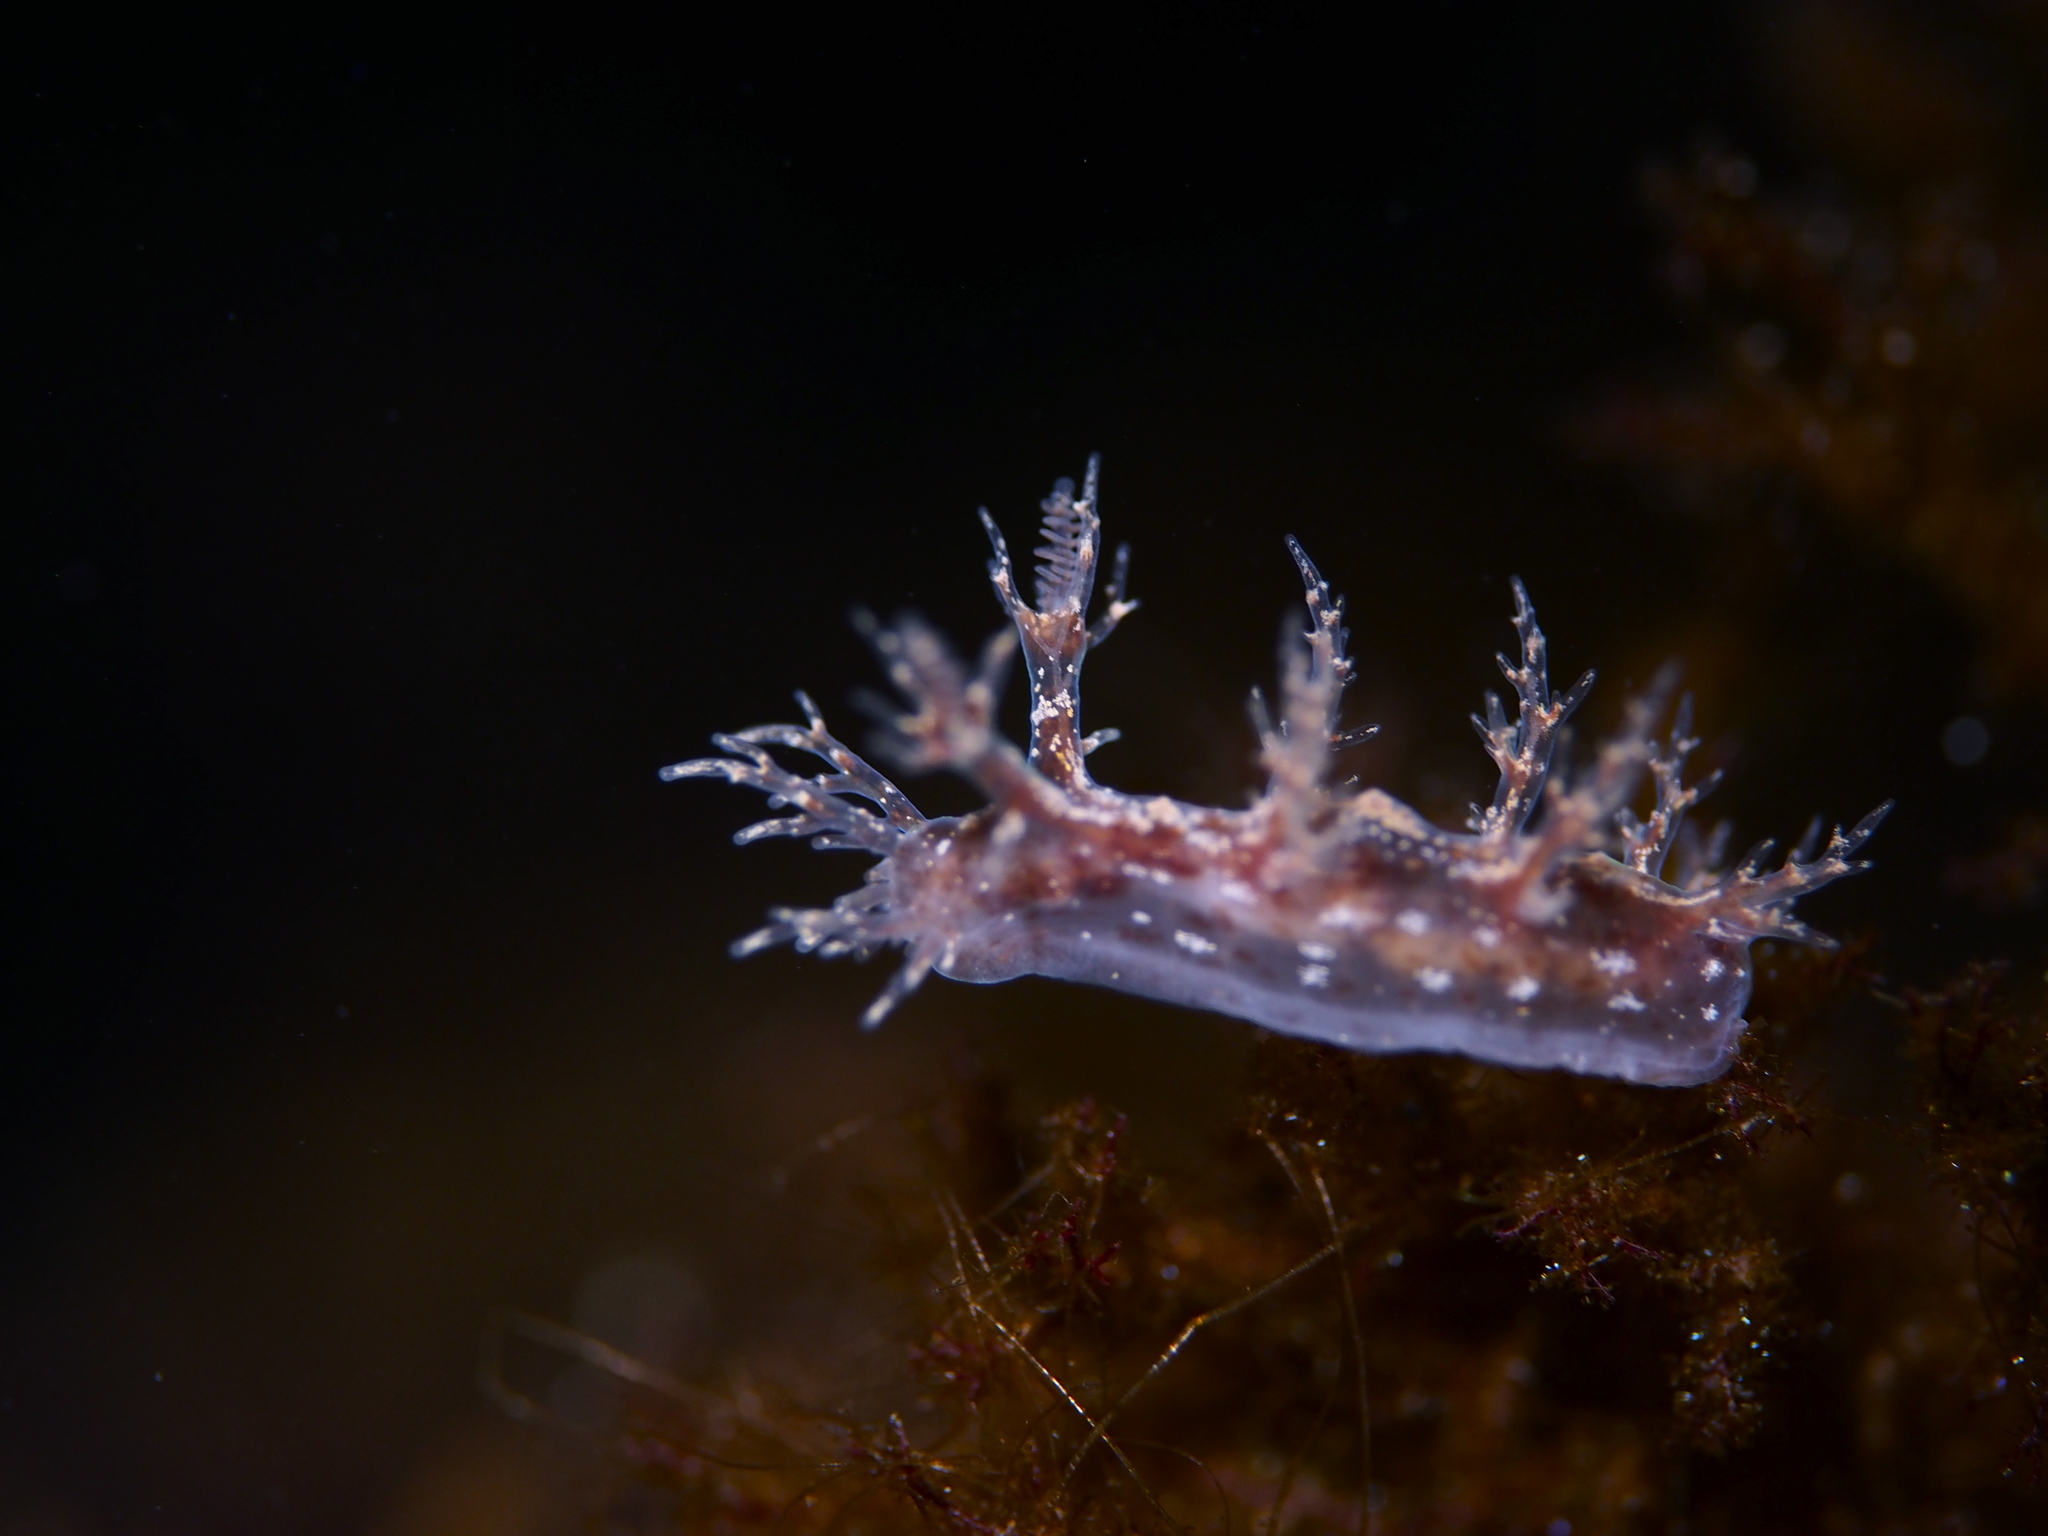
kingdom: Animalia
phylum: Mollusca
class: Gastropoda
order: Nudibranchia
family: Dendronotidae
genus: Dendronotus
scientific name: Dendronotus frondosus
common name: Bushy-backed nudibranch
